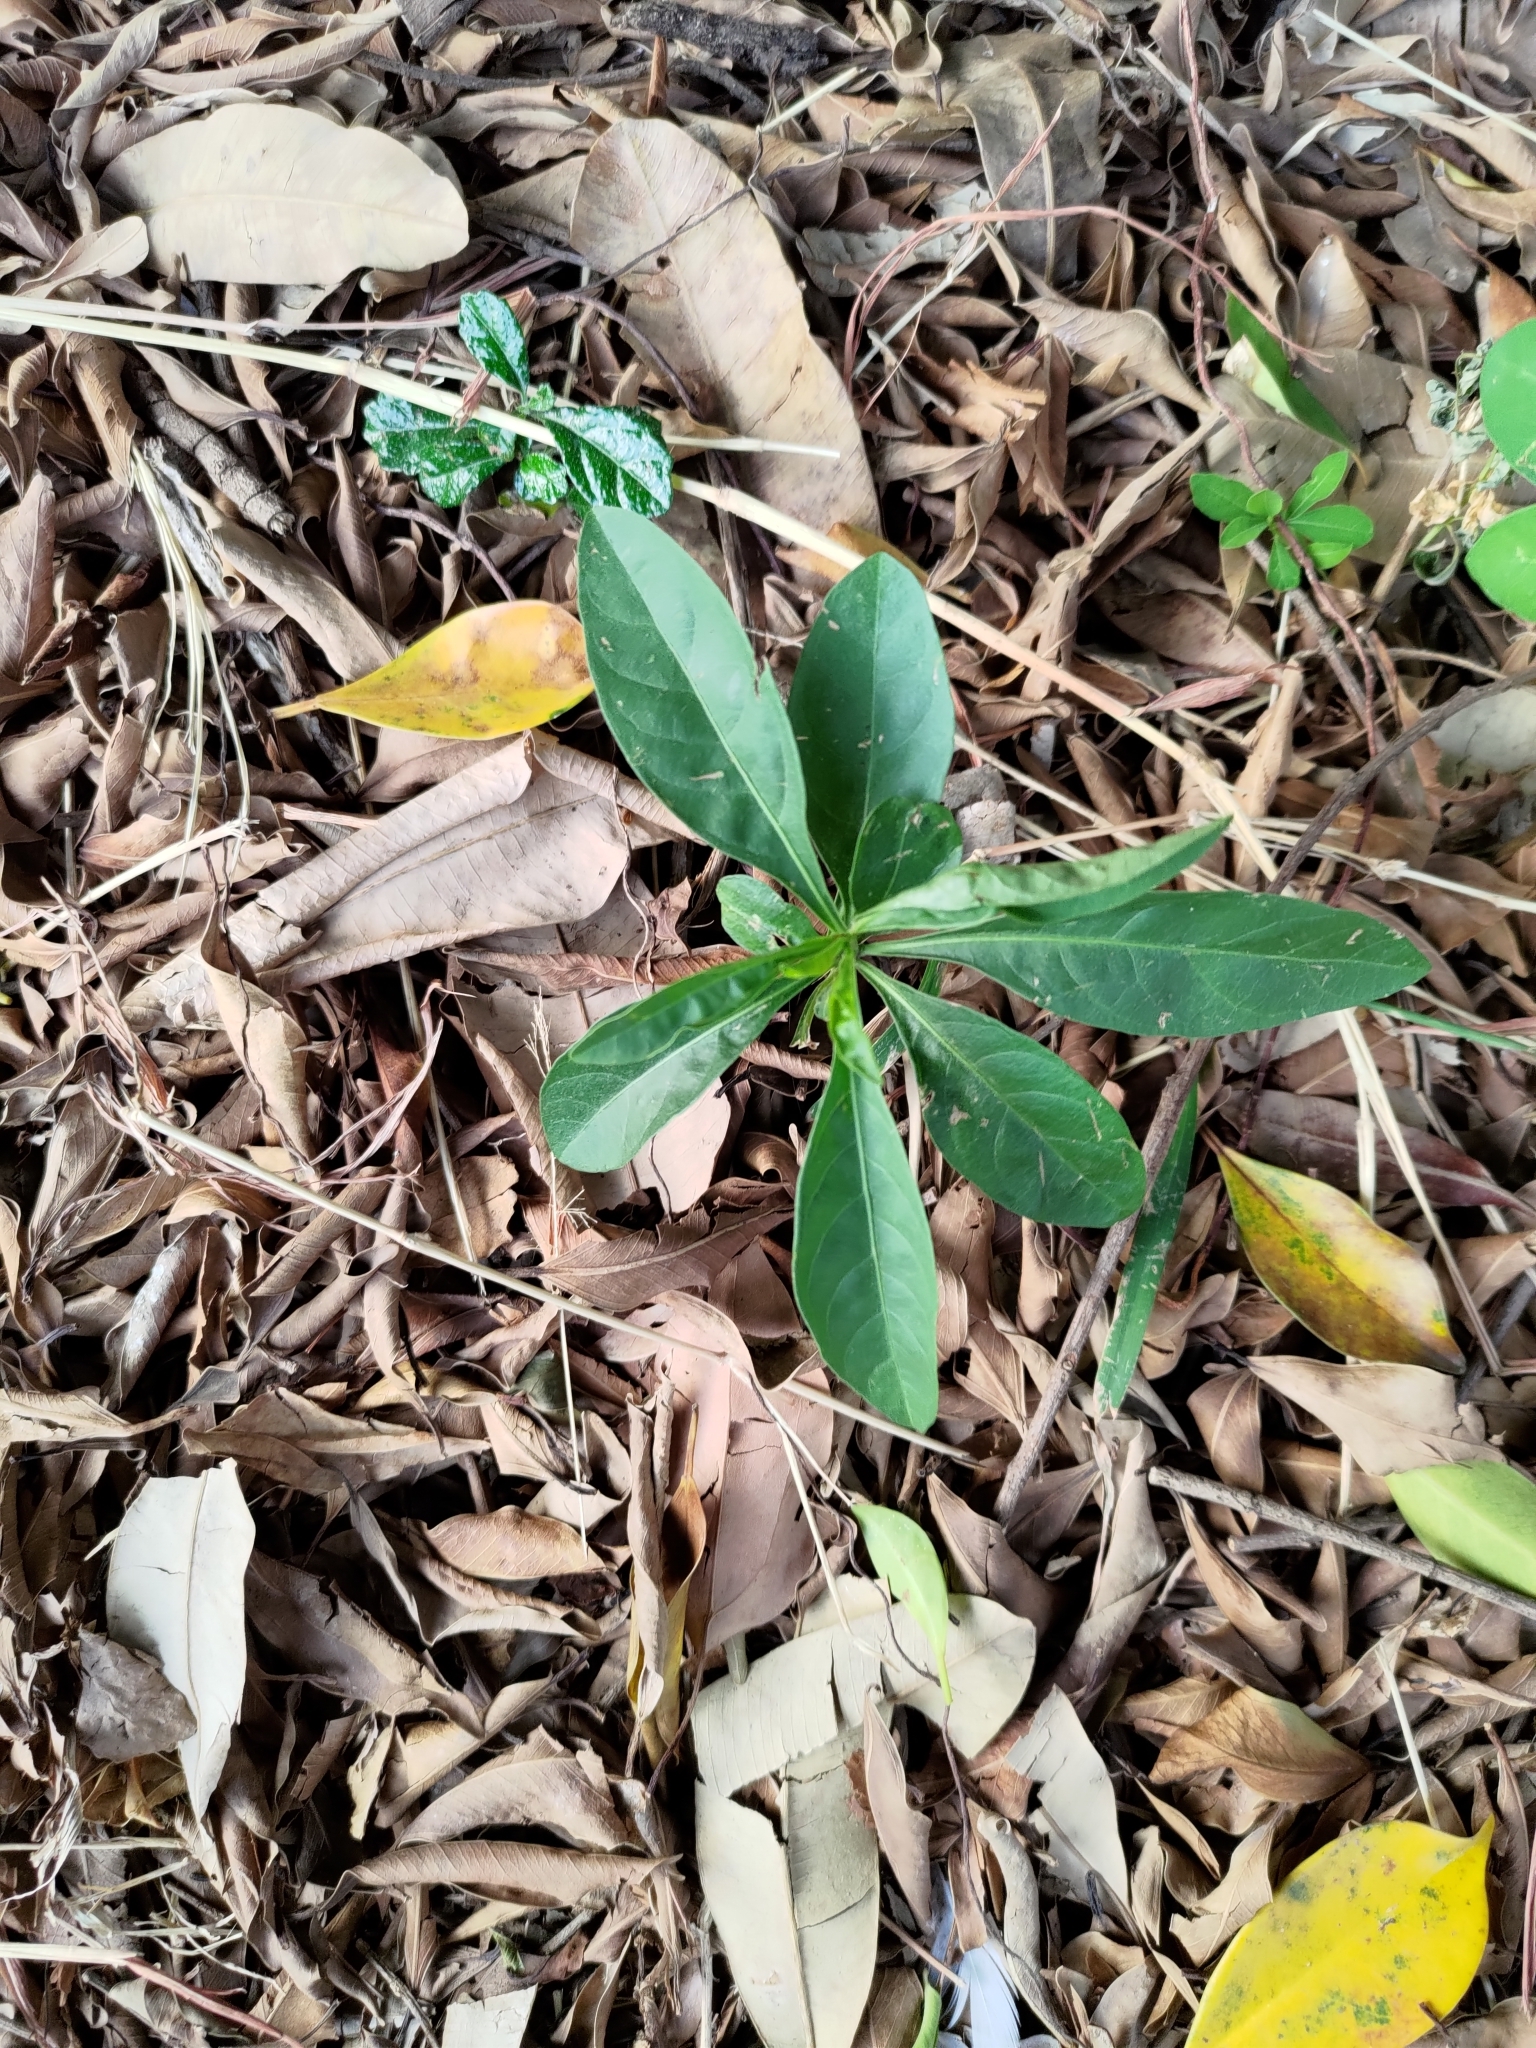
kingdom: Plantae
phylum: Tracheophyta
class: Magnoliopsida
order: Solanales
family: Solanaceae
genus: Solanum
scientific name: Solanum diphyllum
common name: Twoleaf nightshade
